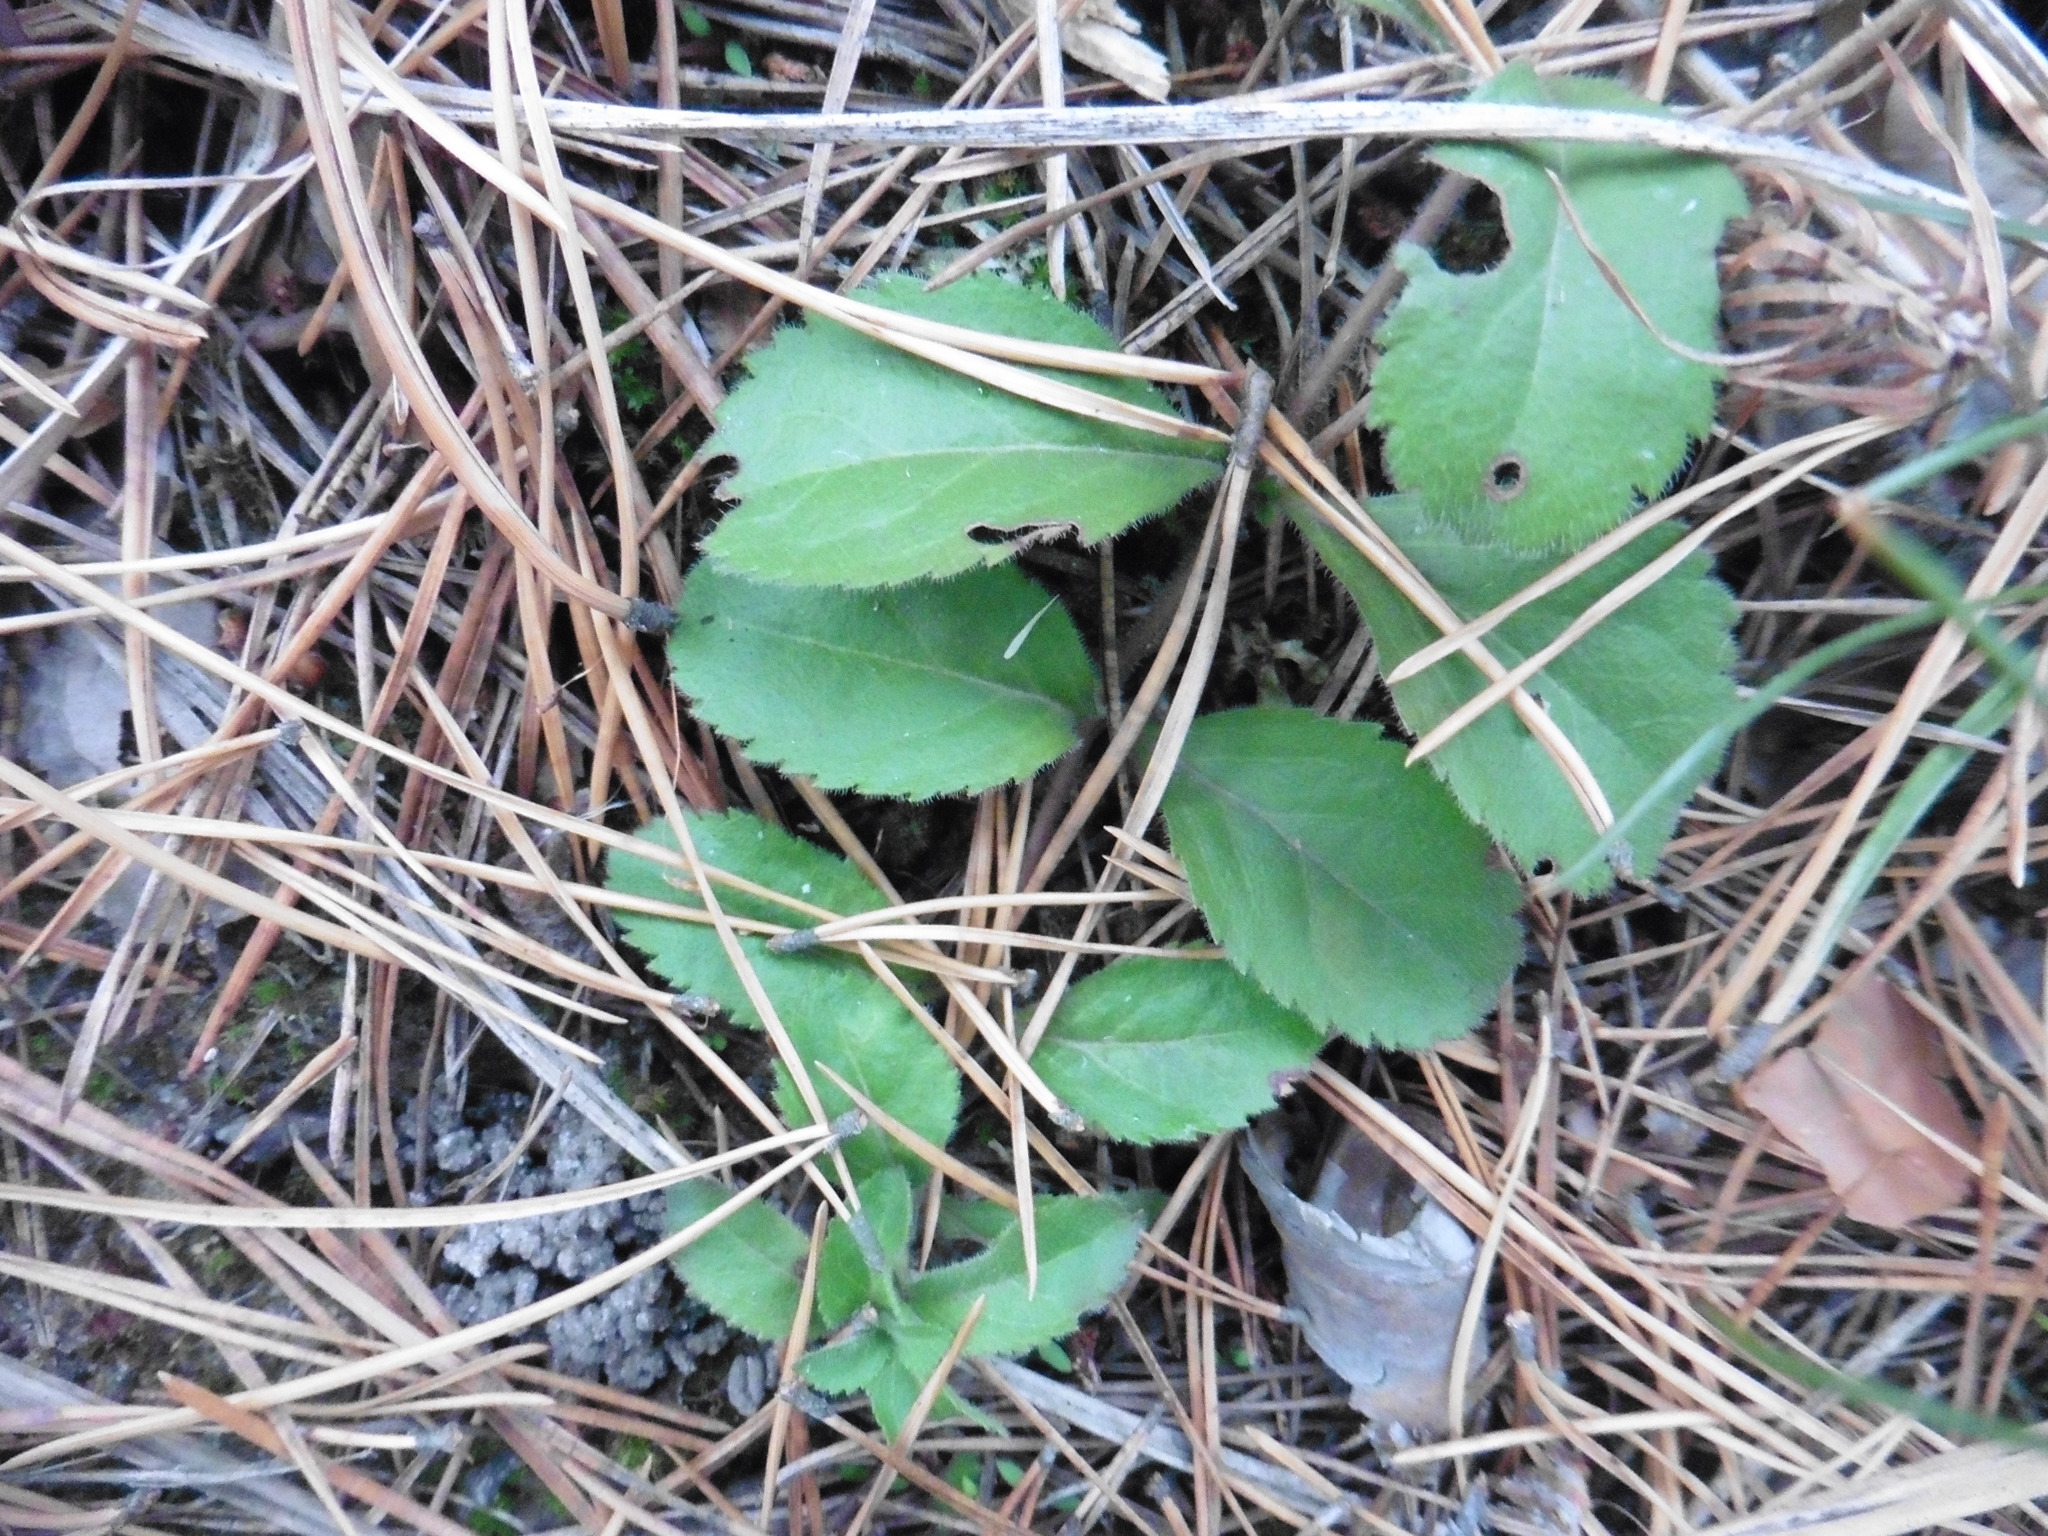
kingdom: Plantae
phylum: Tracheophyta
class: Magnoliopsida
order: Lamiales
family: Plantaginaceae
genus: Veronica
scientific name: Veronica officinalis
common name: Common speedwell
